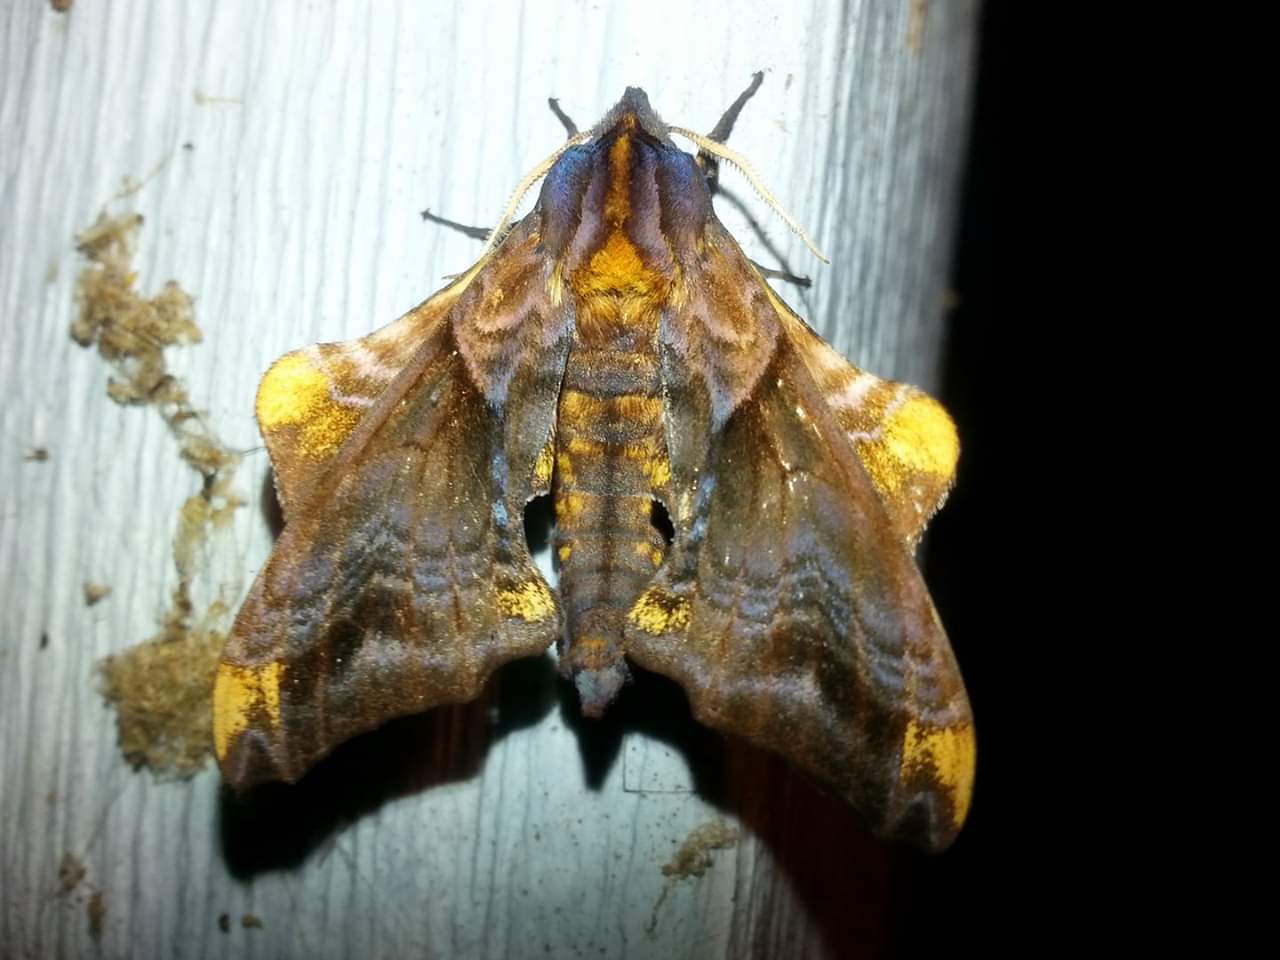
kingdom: Animalia
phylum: Arthropoda
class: Insecta
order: Lepidoptera
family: Sphingidae
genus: Paonias
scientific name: Paonias myops
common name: Small-eyed sphinx
